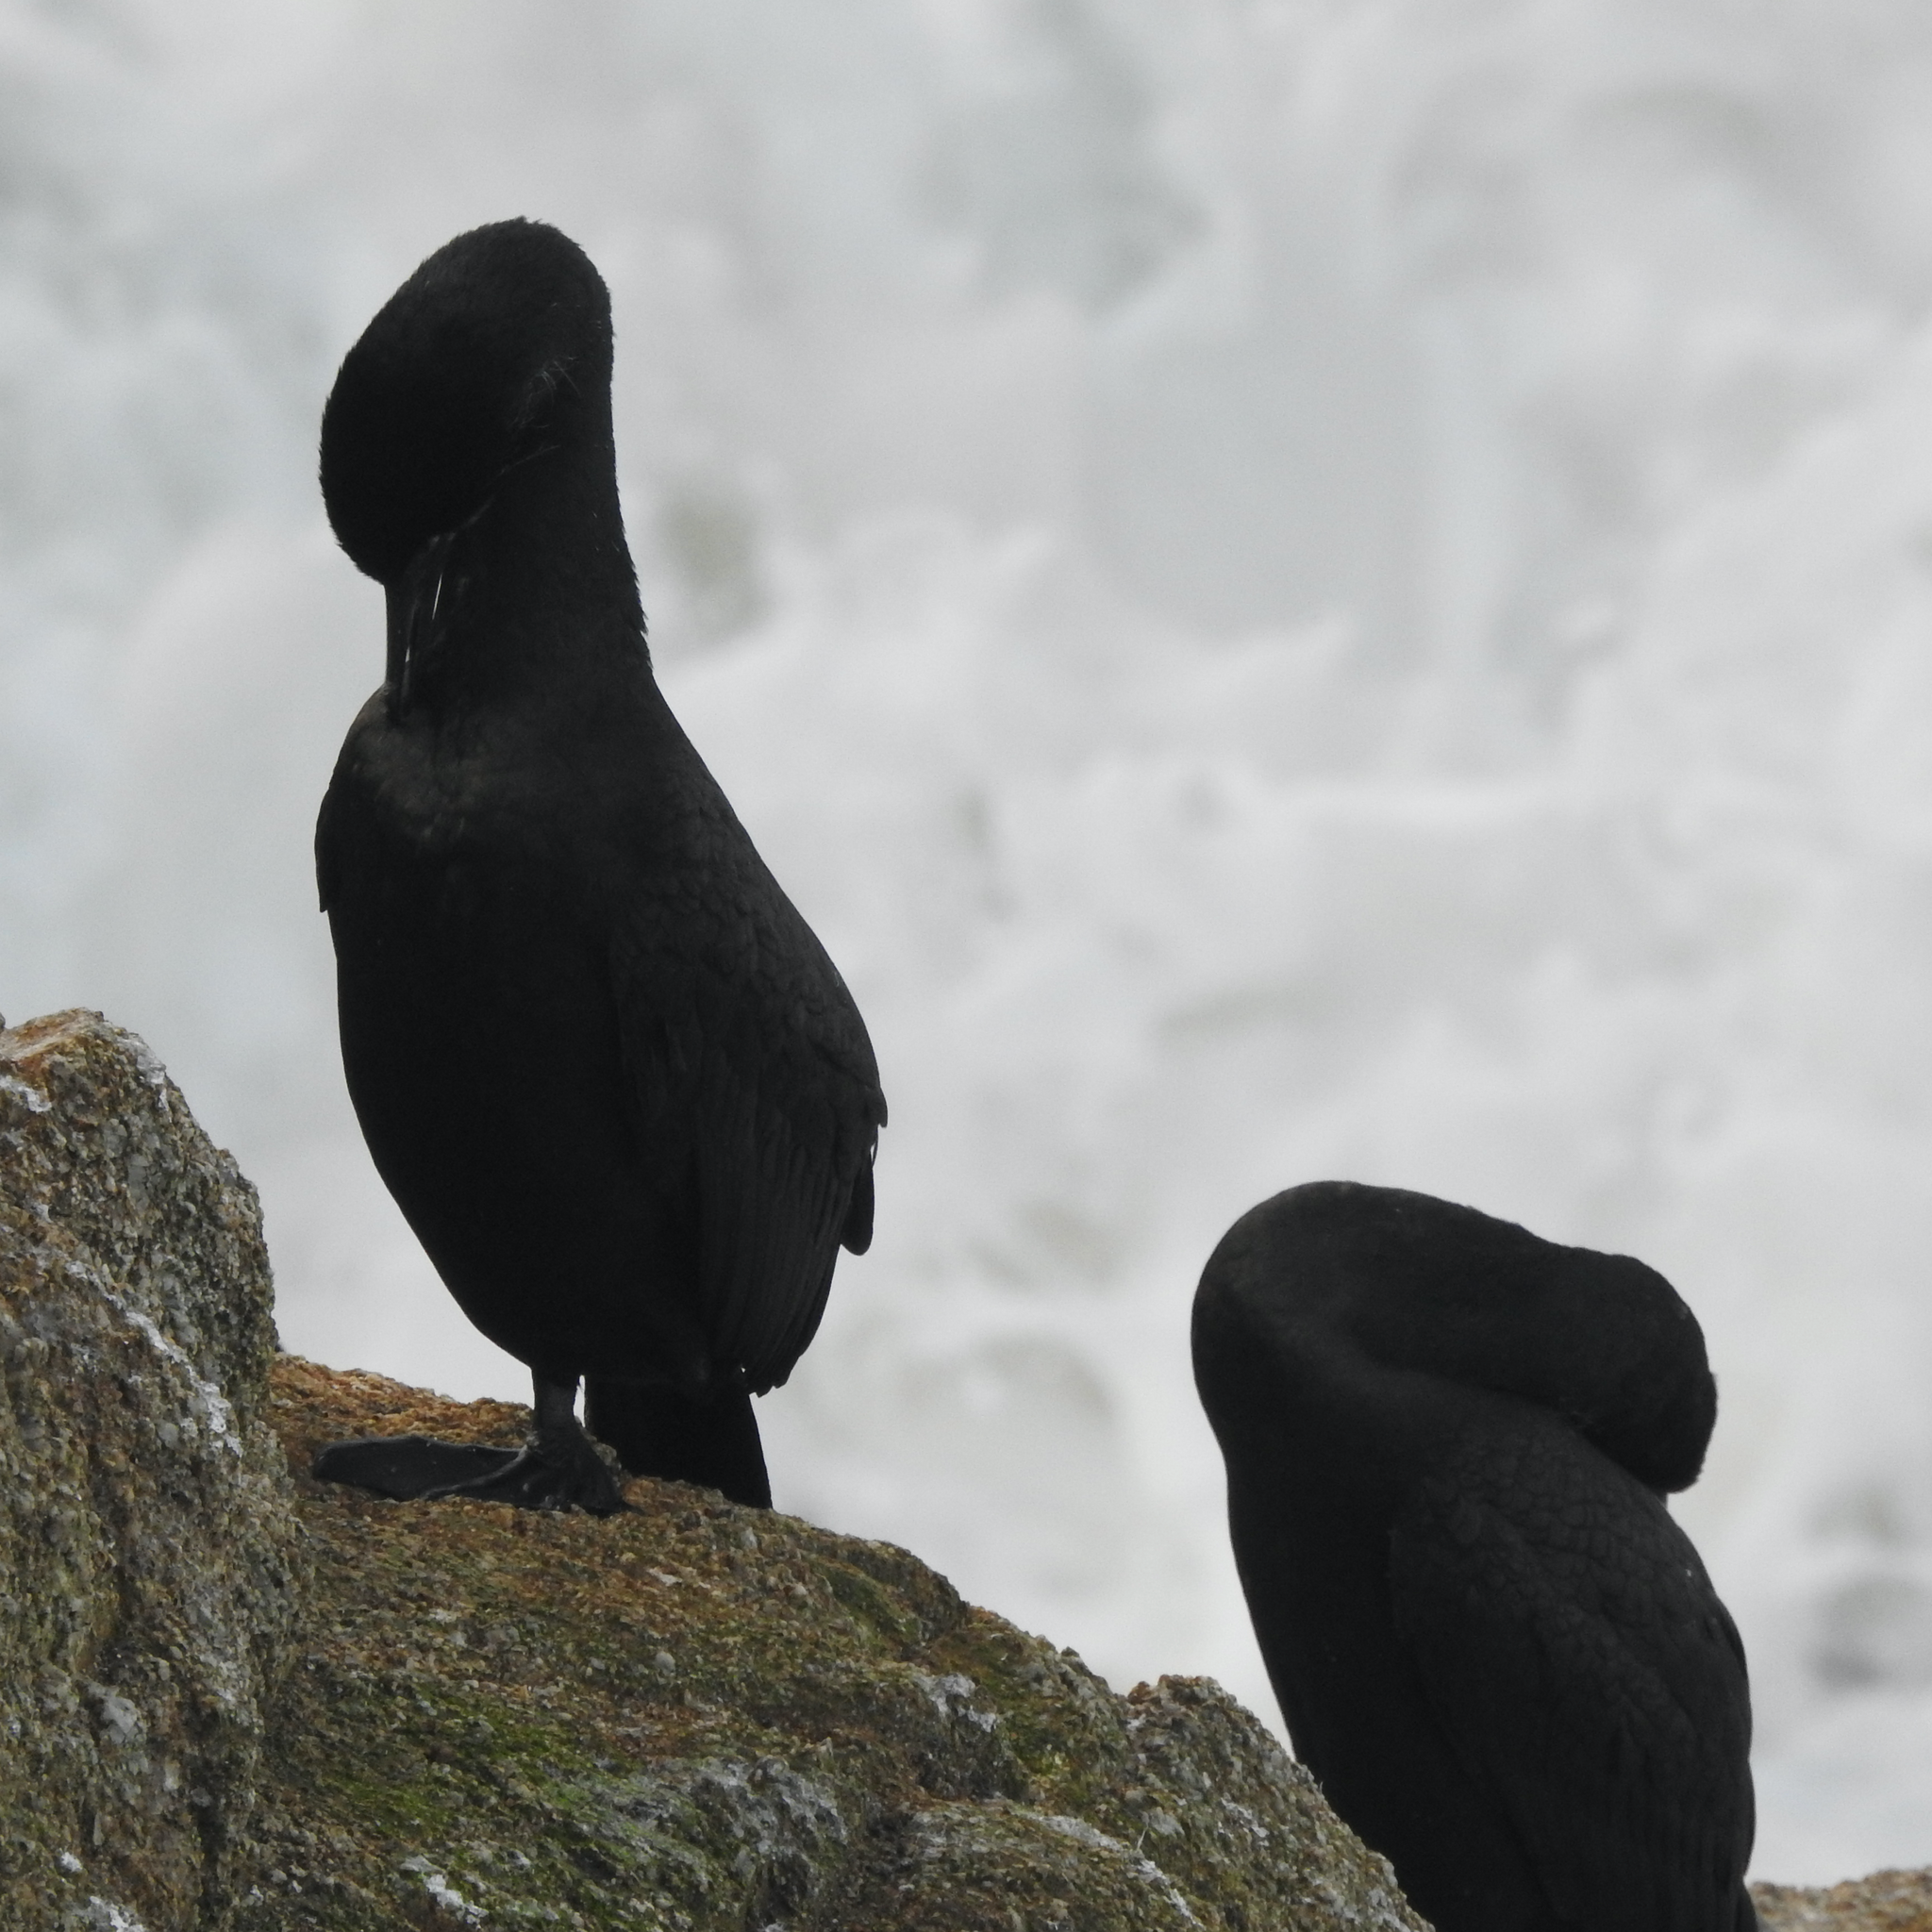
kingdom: Animalia
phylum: Chordata
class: Aves
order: Suliformes
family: Phalacrocoracidae
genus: Urile
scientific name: Urile penicillatus
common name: Brandt's cormorant
